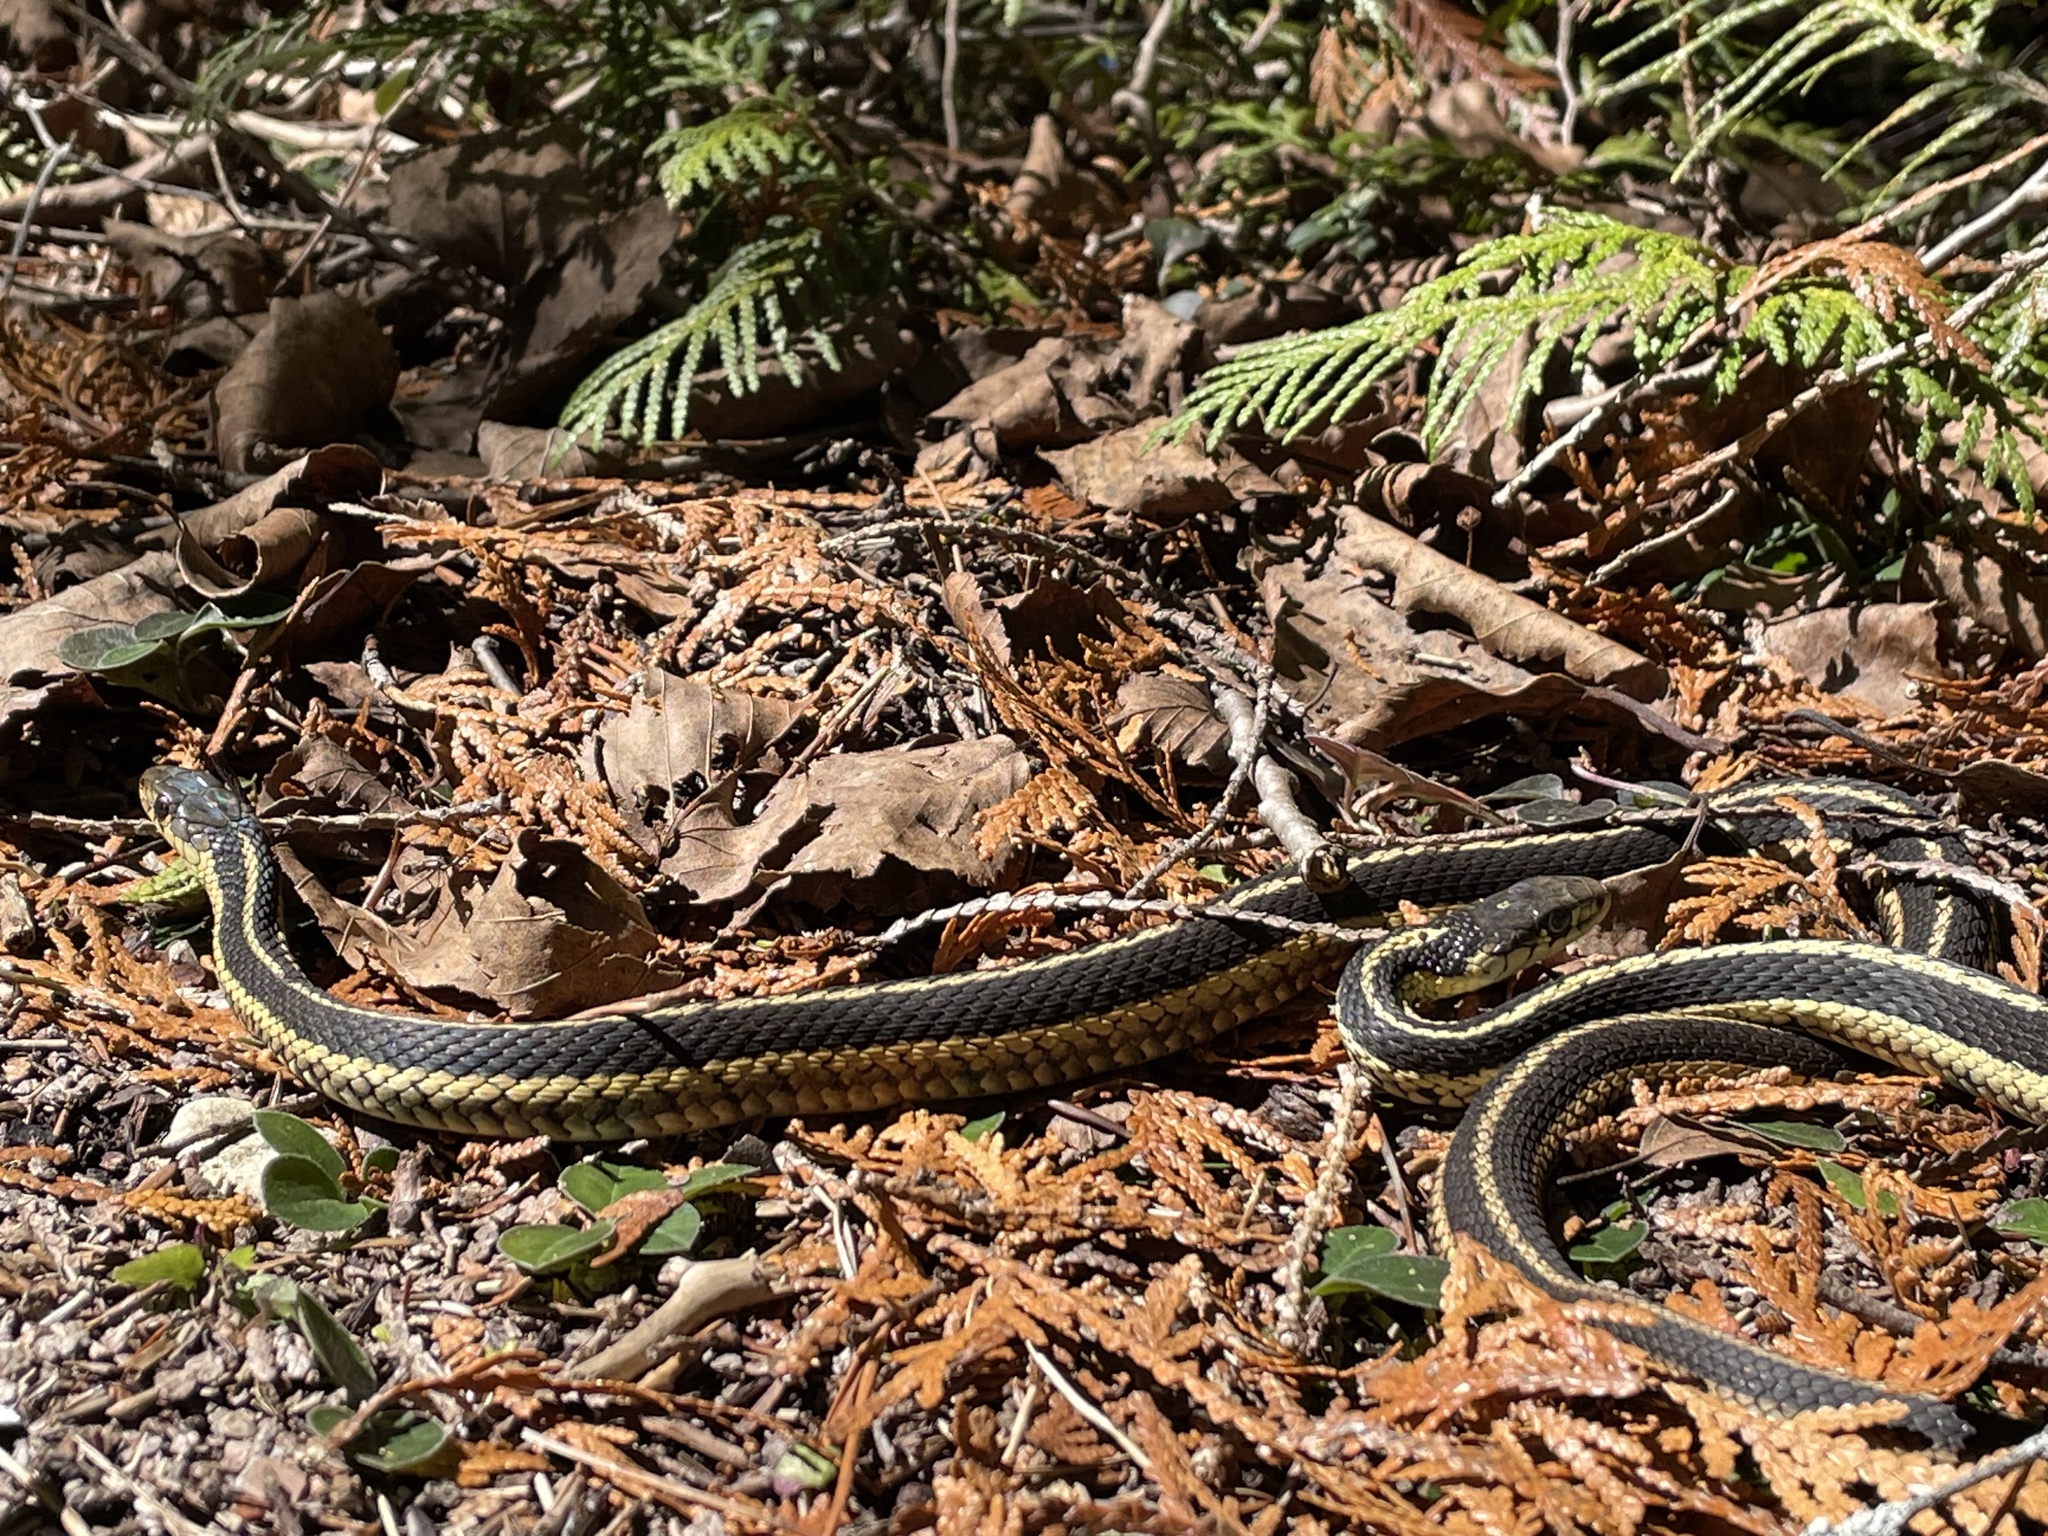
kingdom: Animalia
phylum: Chordata
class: Squamata
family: Colubridae
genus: Thamnophis
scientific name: Thamnophis sirtalis
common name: Common garter snake
